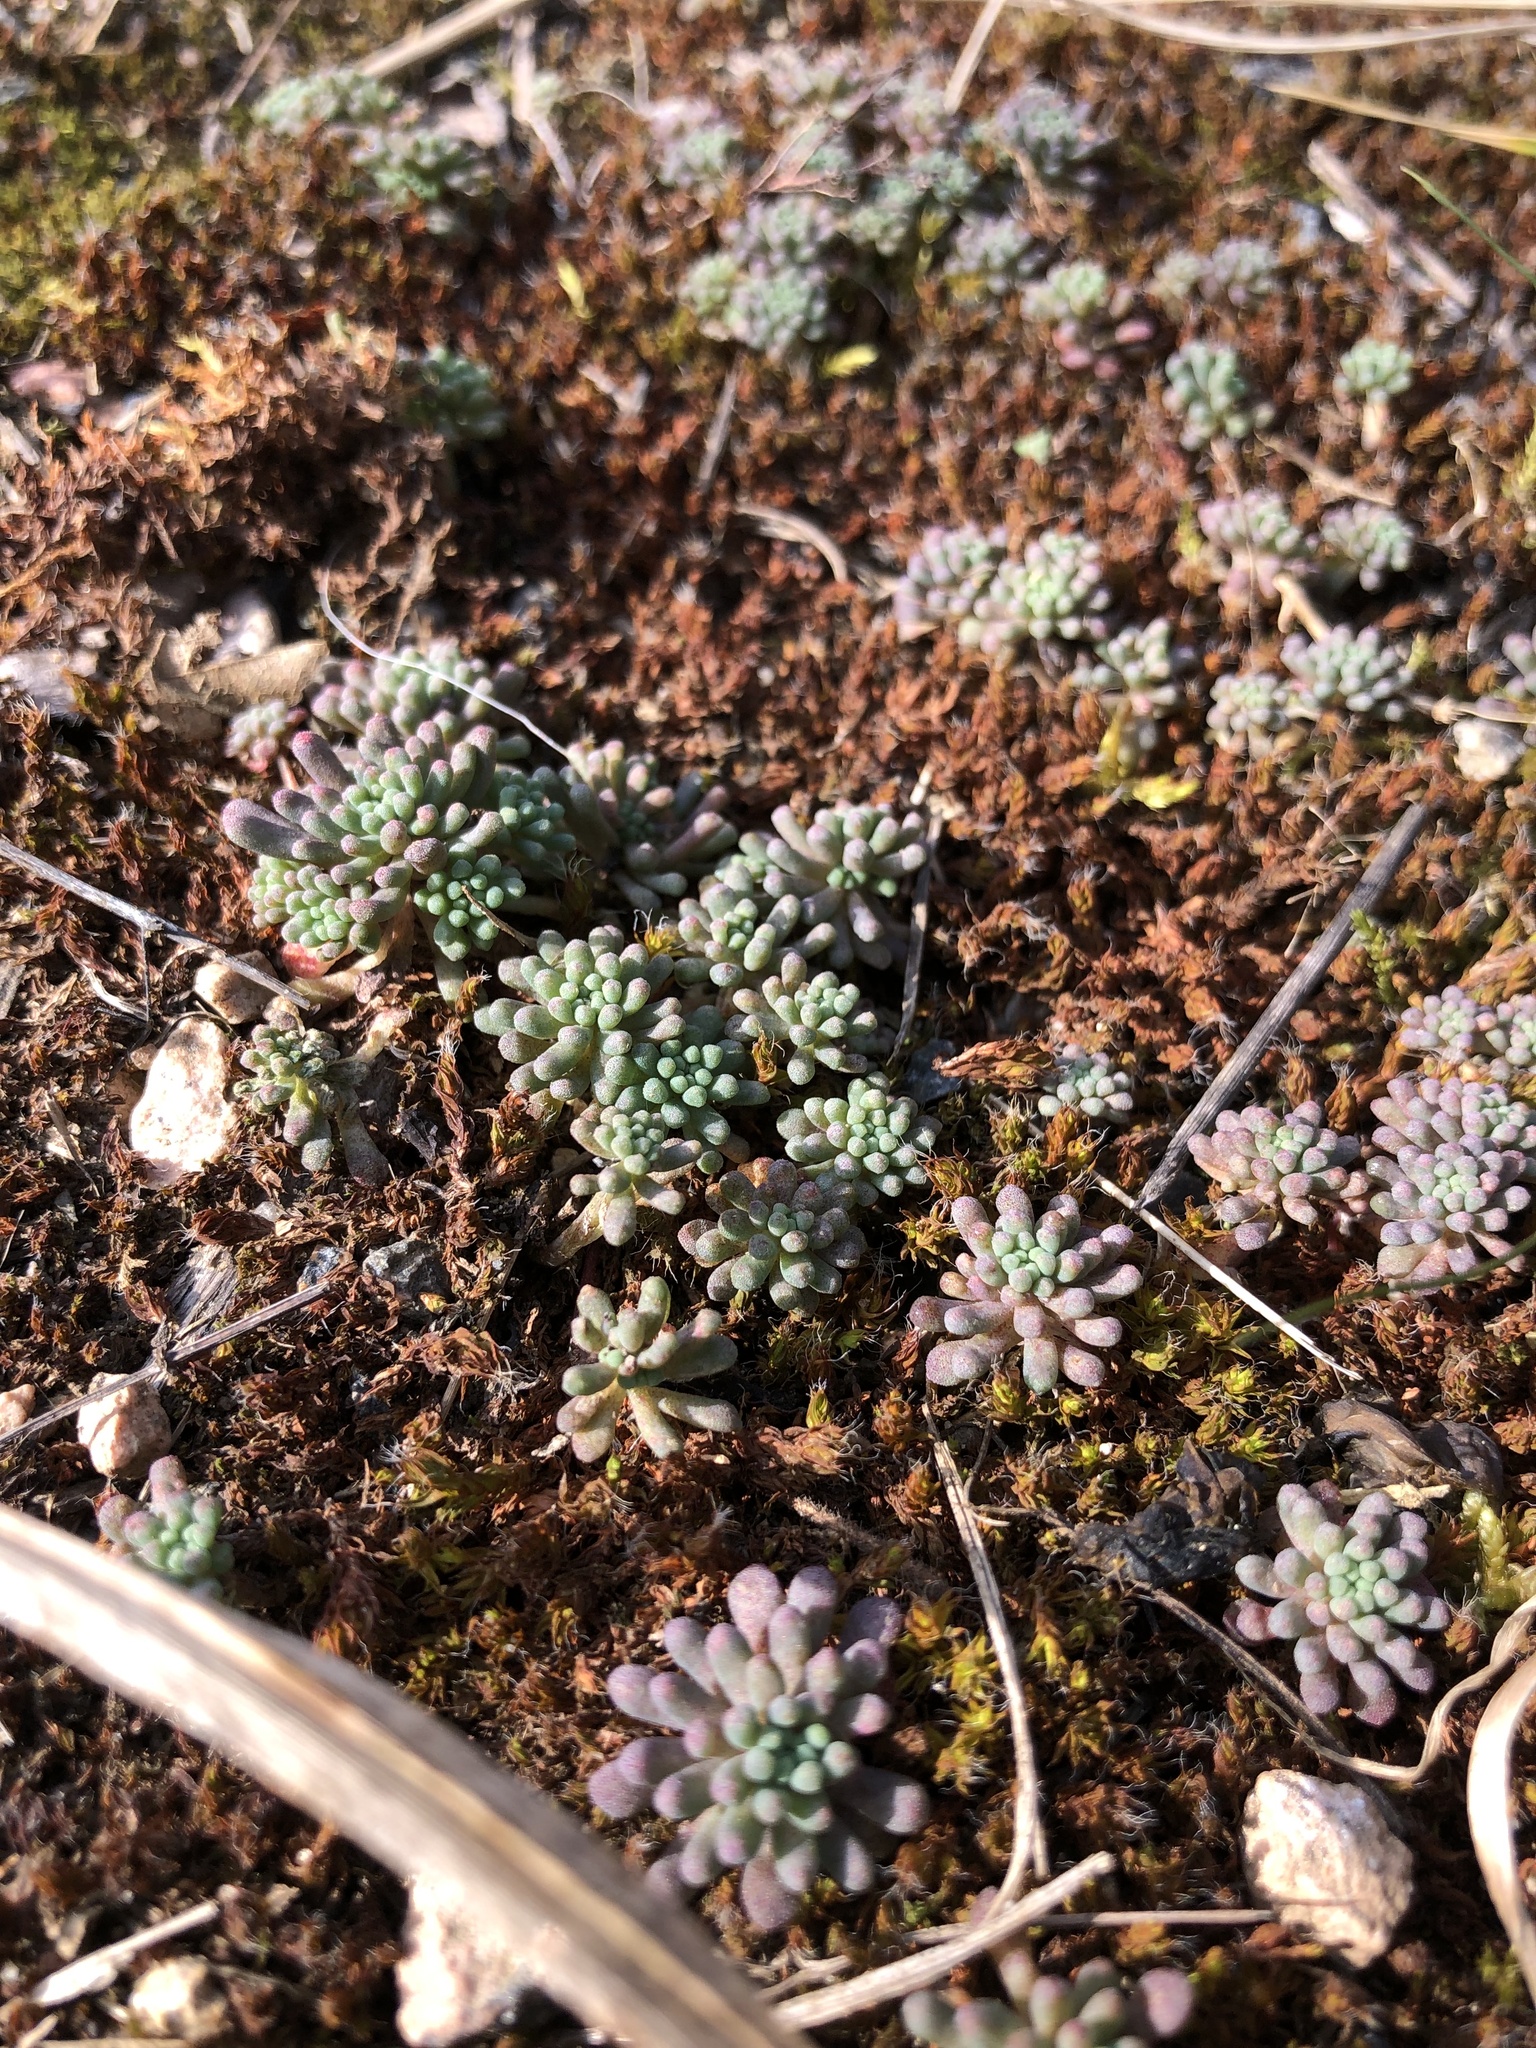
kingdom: Plantae
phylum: Tracheophyta
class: Magnoliopsida
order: Saxifragales
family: Crassulaceae
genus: Sedum
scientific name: Sedum rubens
